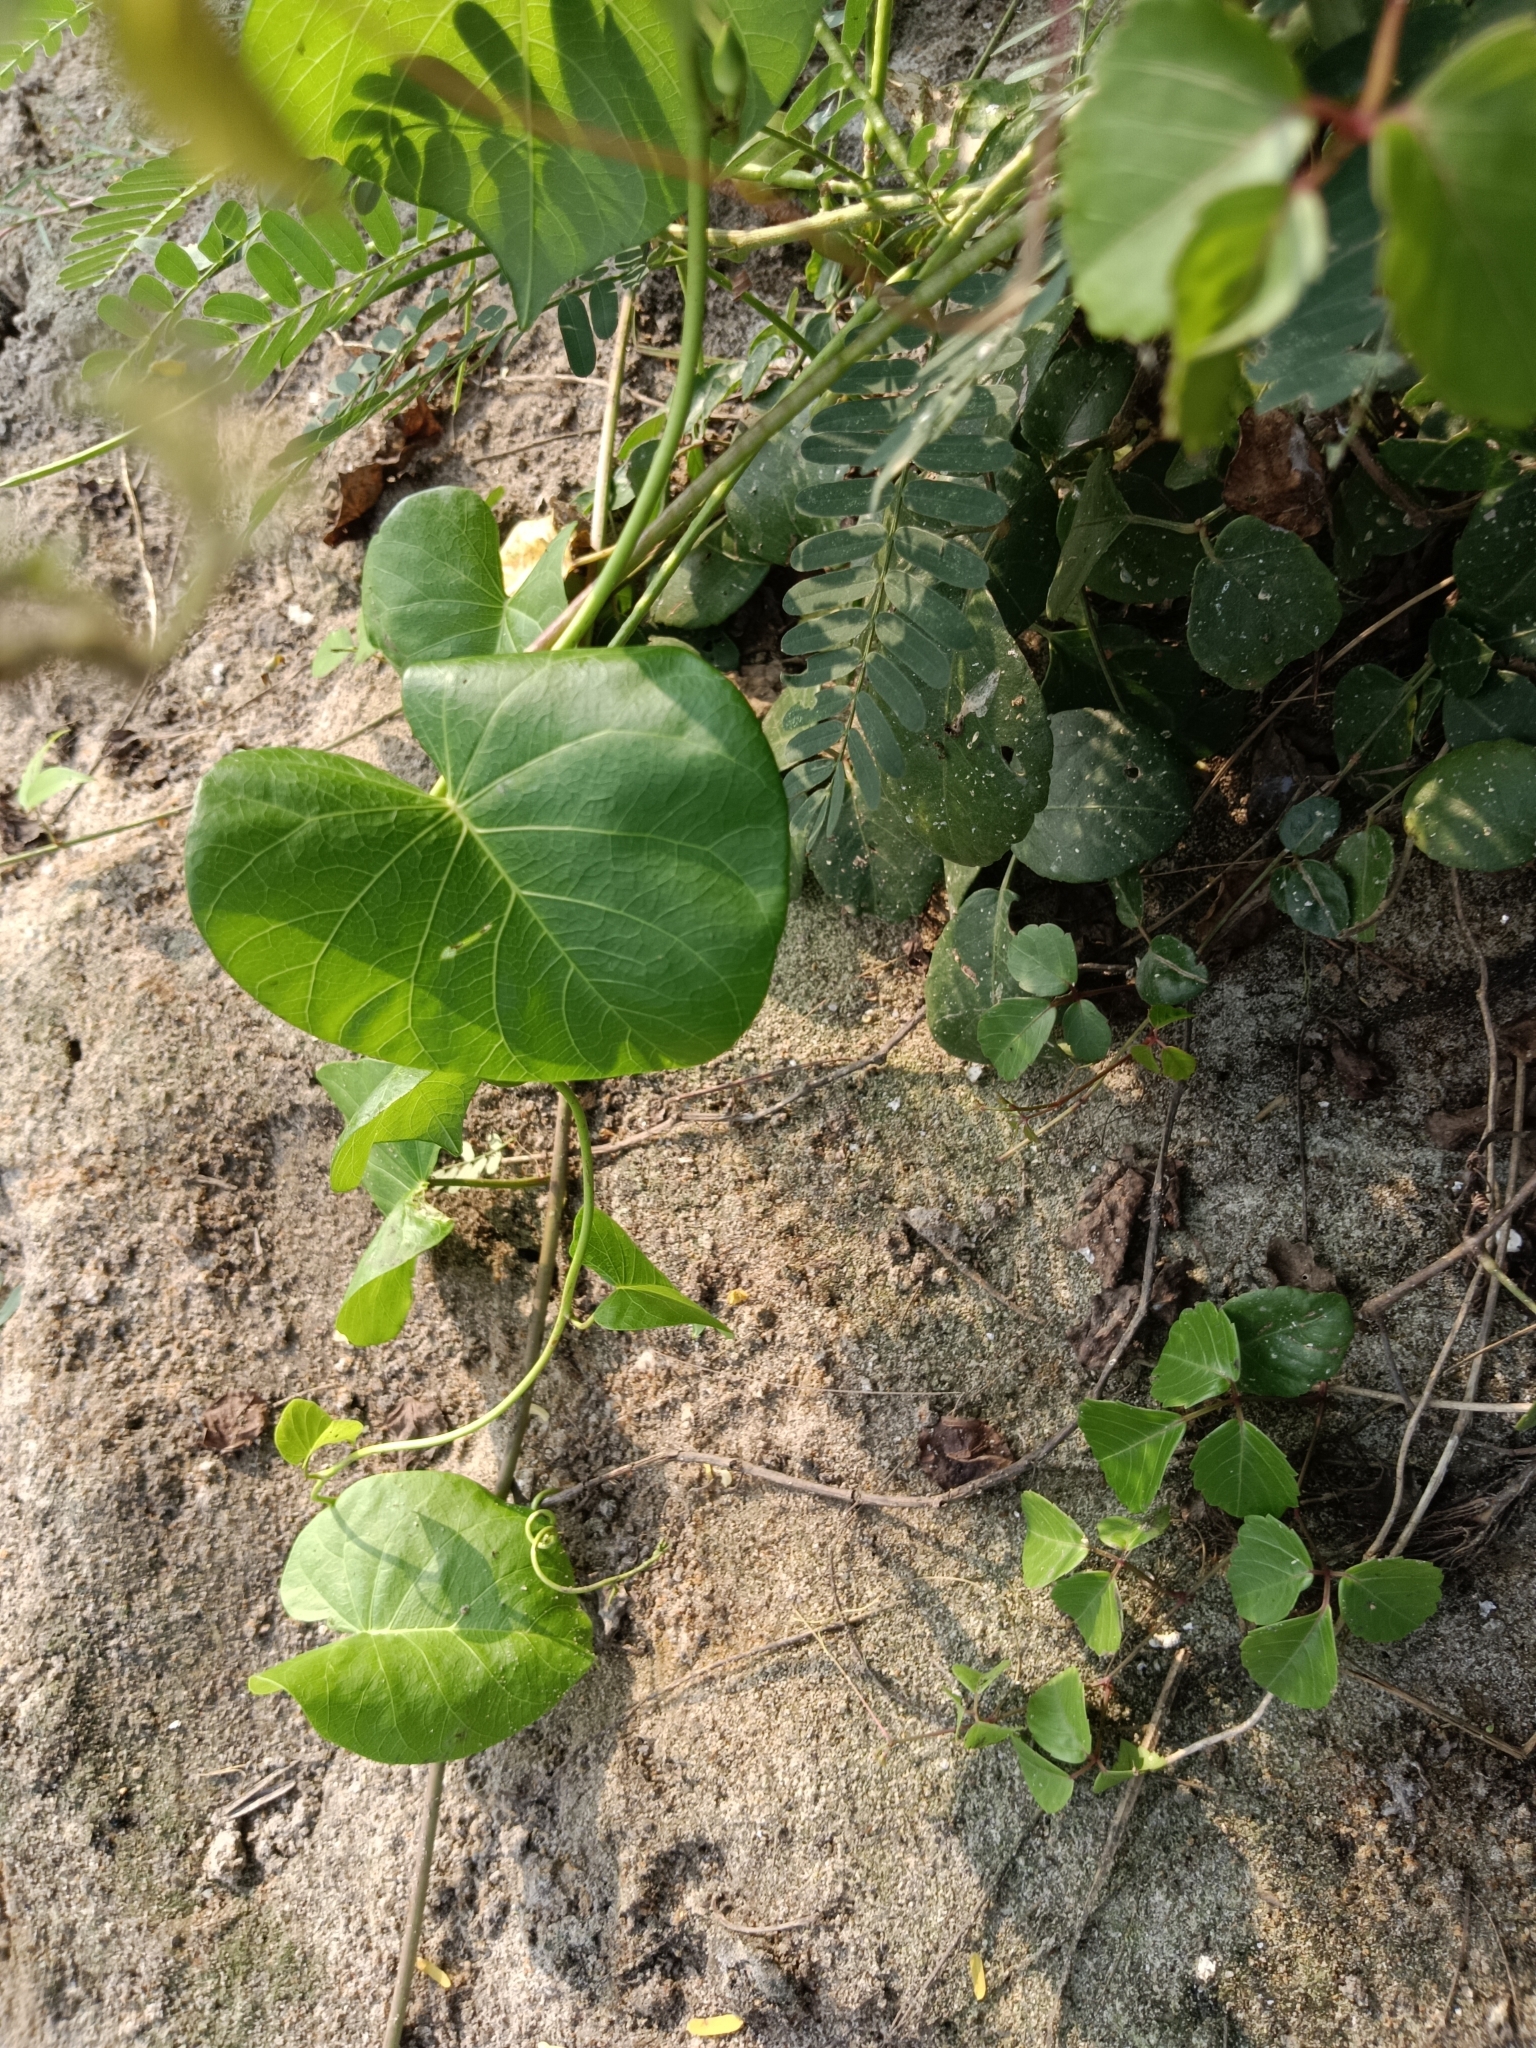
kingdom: Plantae
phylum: Tracheophyta
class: Magnoliopsida
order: Solanales
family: Convolvulaceae
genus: Ipomoea
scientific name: Ipomoea violacea
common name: Beach moonflower
